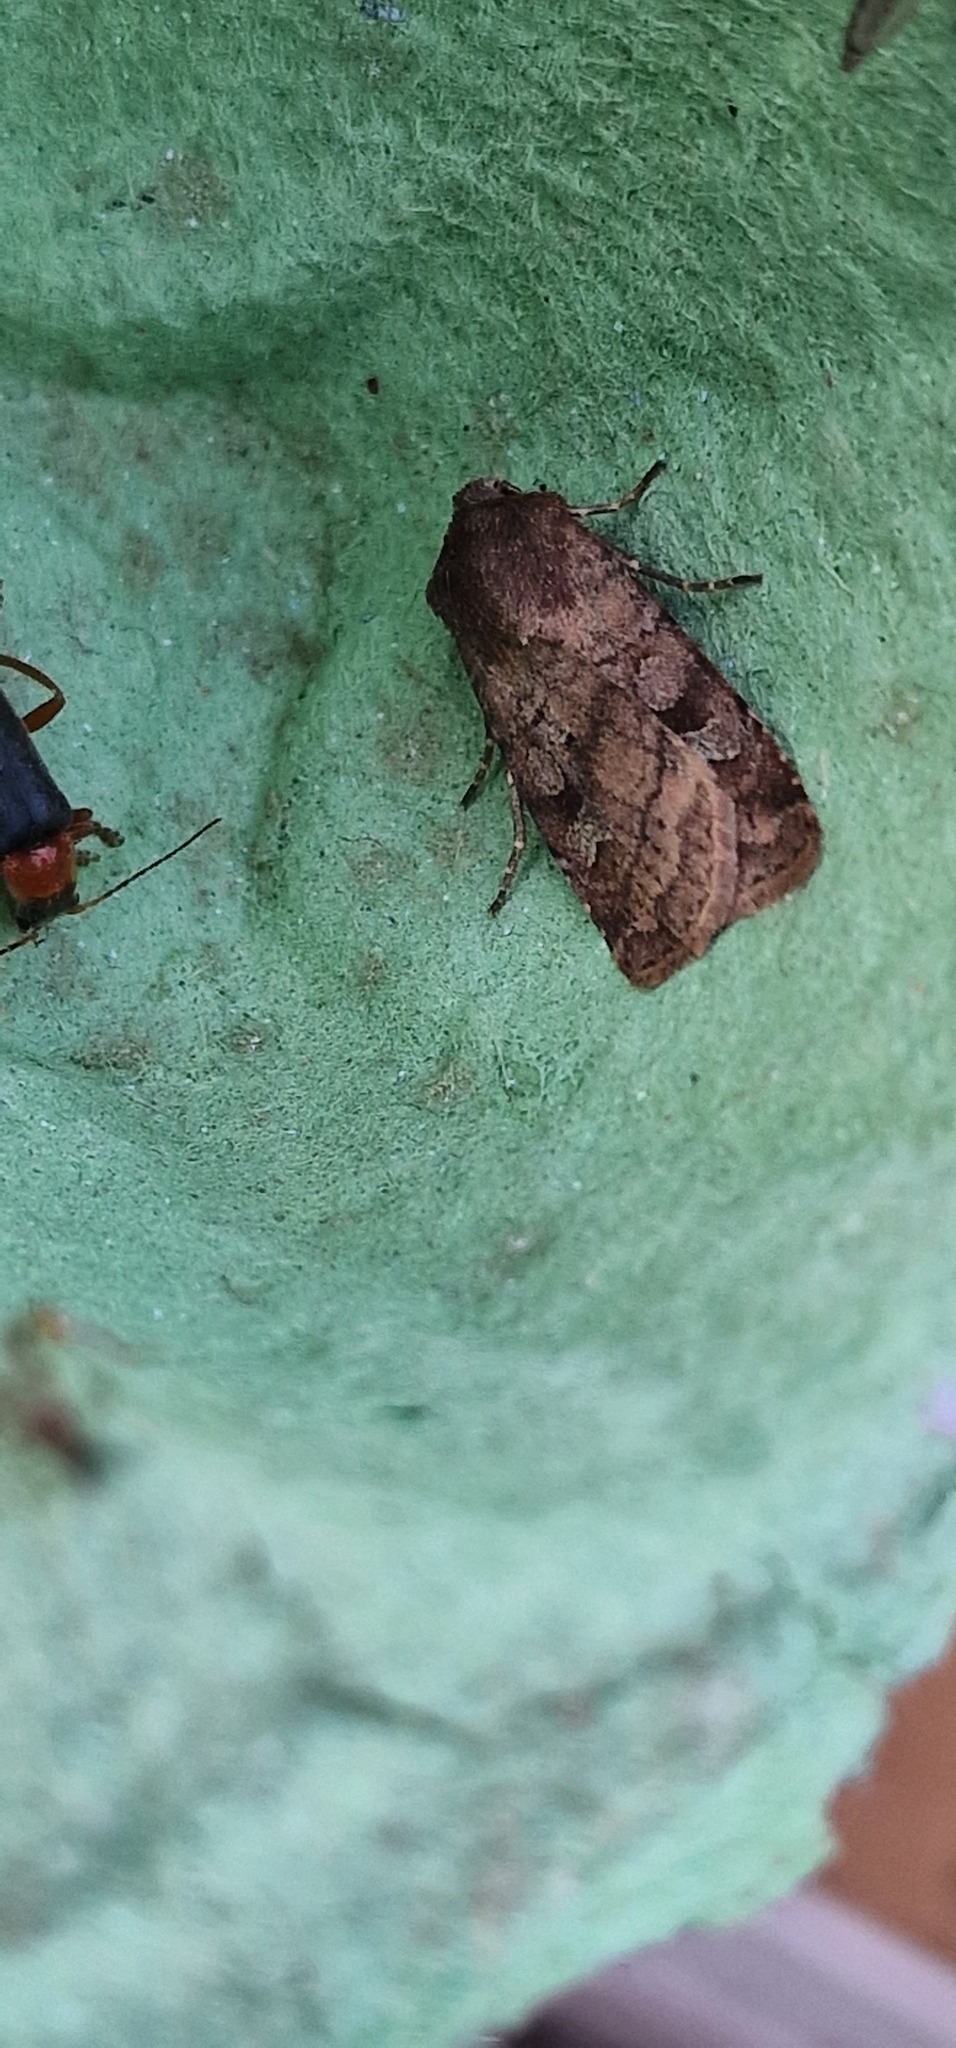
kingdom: Animalia
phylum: Arthropoda
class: Insecta
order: Lepidoptera
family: Noctuidae
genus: Diarsia
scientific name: Diarsia rubi
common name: Small square-spot
